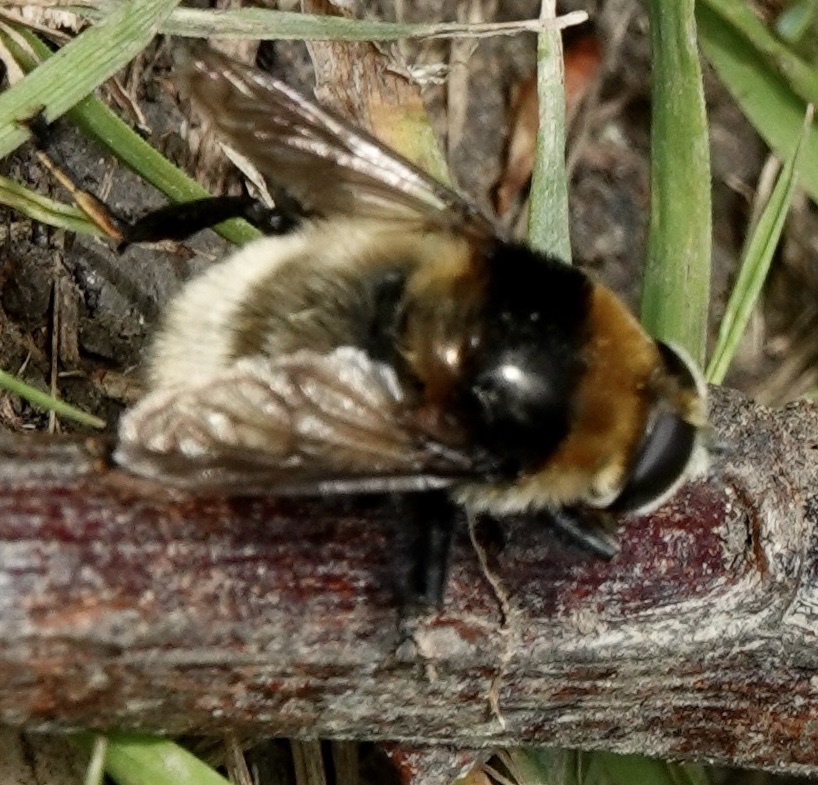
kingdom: Animalia
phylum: Arthropoda
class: Insecta
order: Diptera
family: Syrphidae
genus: Merodon
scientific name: Merodon equestris
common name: Greater bulb-fly
